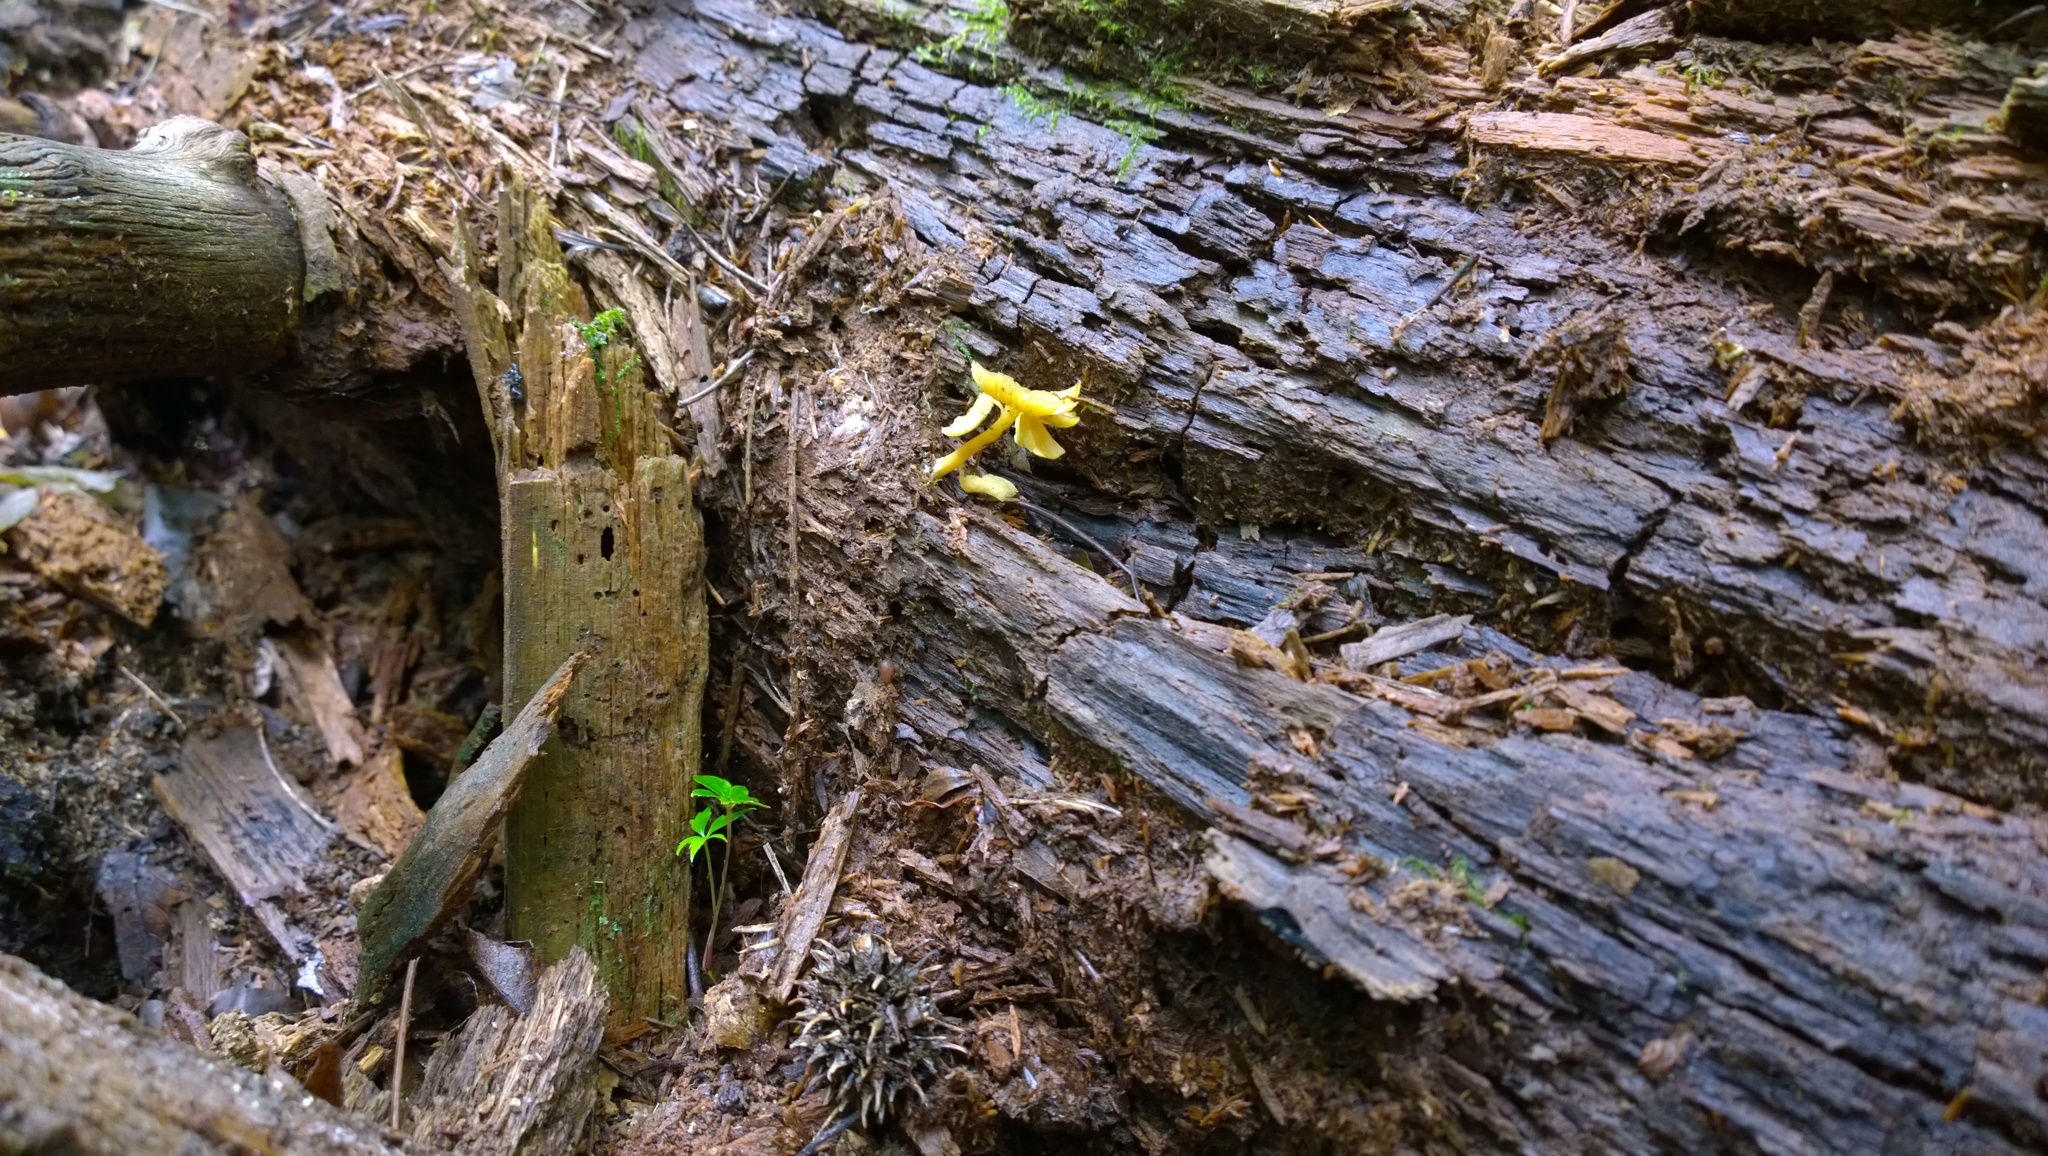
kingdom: Fungi
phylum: Basidiomycota
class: Agaricomycetes
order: Agaricales
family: Callistosporiaceae
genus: Callistosporium
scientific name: Callistosporium luteo-olivaceum
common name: Olive lute
